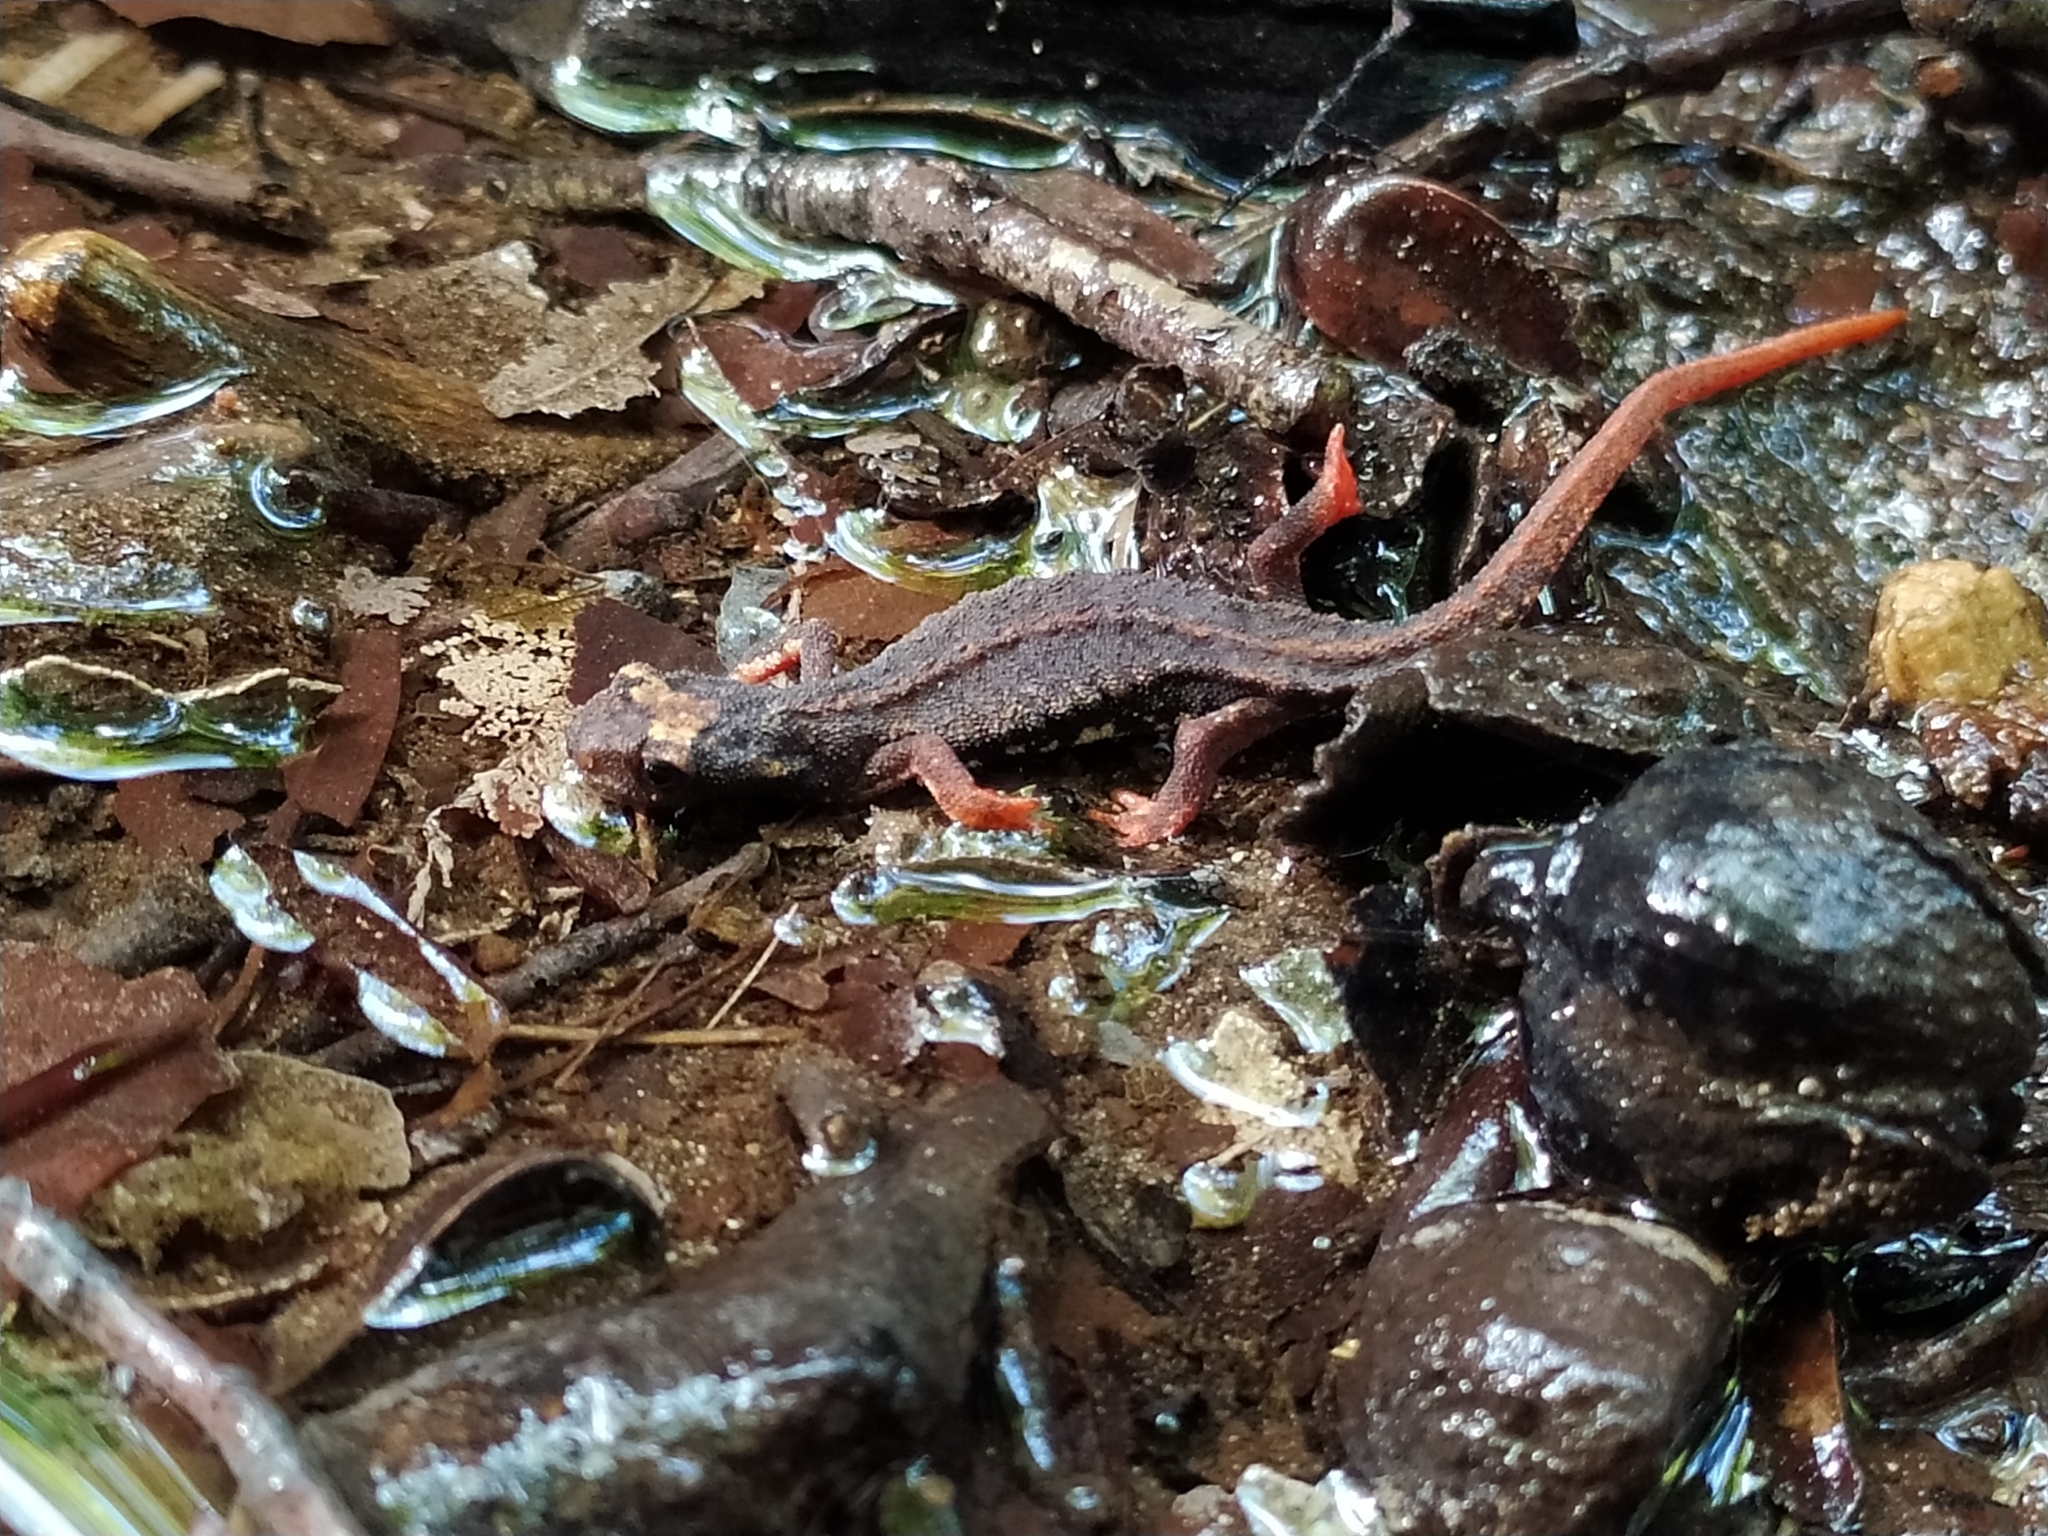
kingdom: Animalia
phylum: Chordata
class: Amphibia
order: Caudata
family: Salamandridae
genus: Salamandrina
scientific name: Salamandrina terdigitata
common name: Southern spectacled salamander
